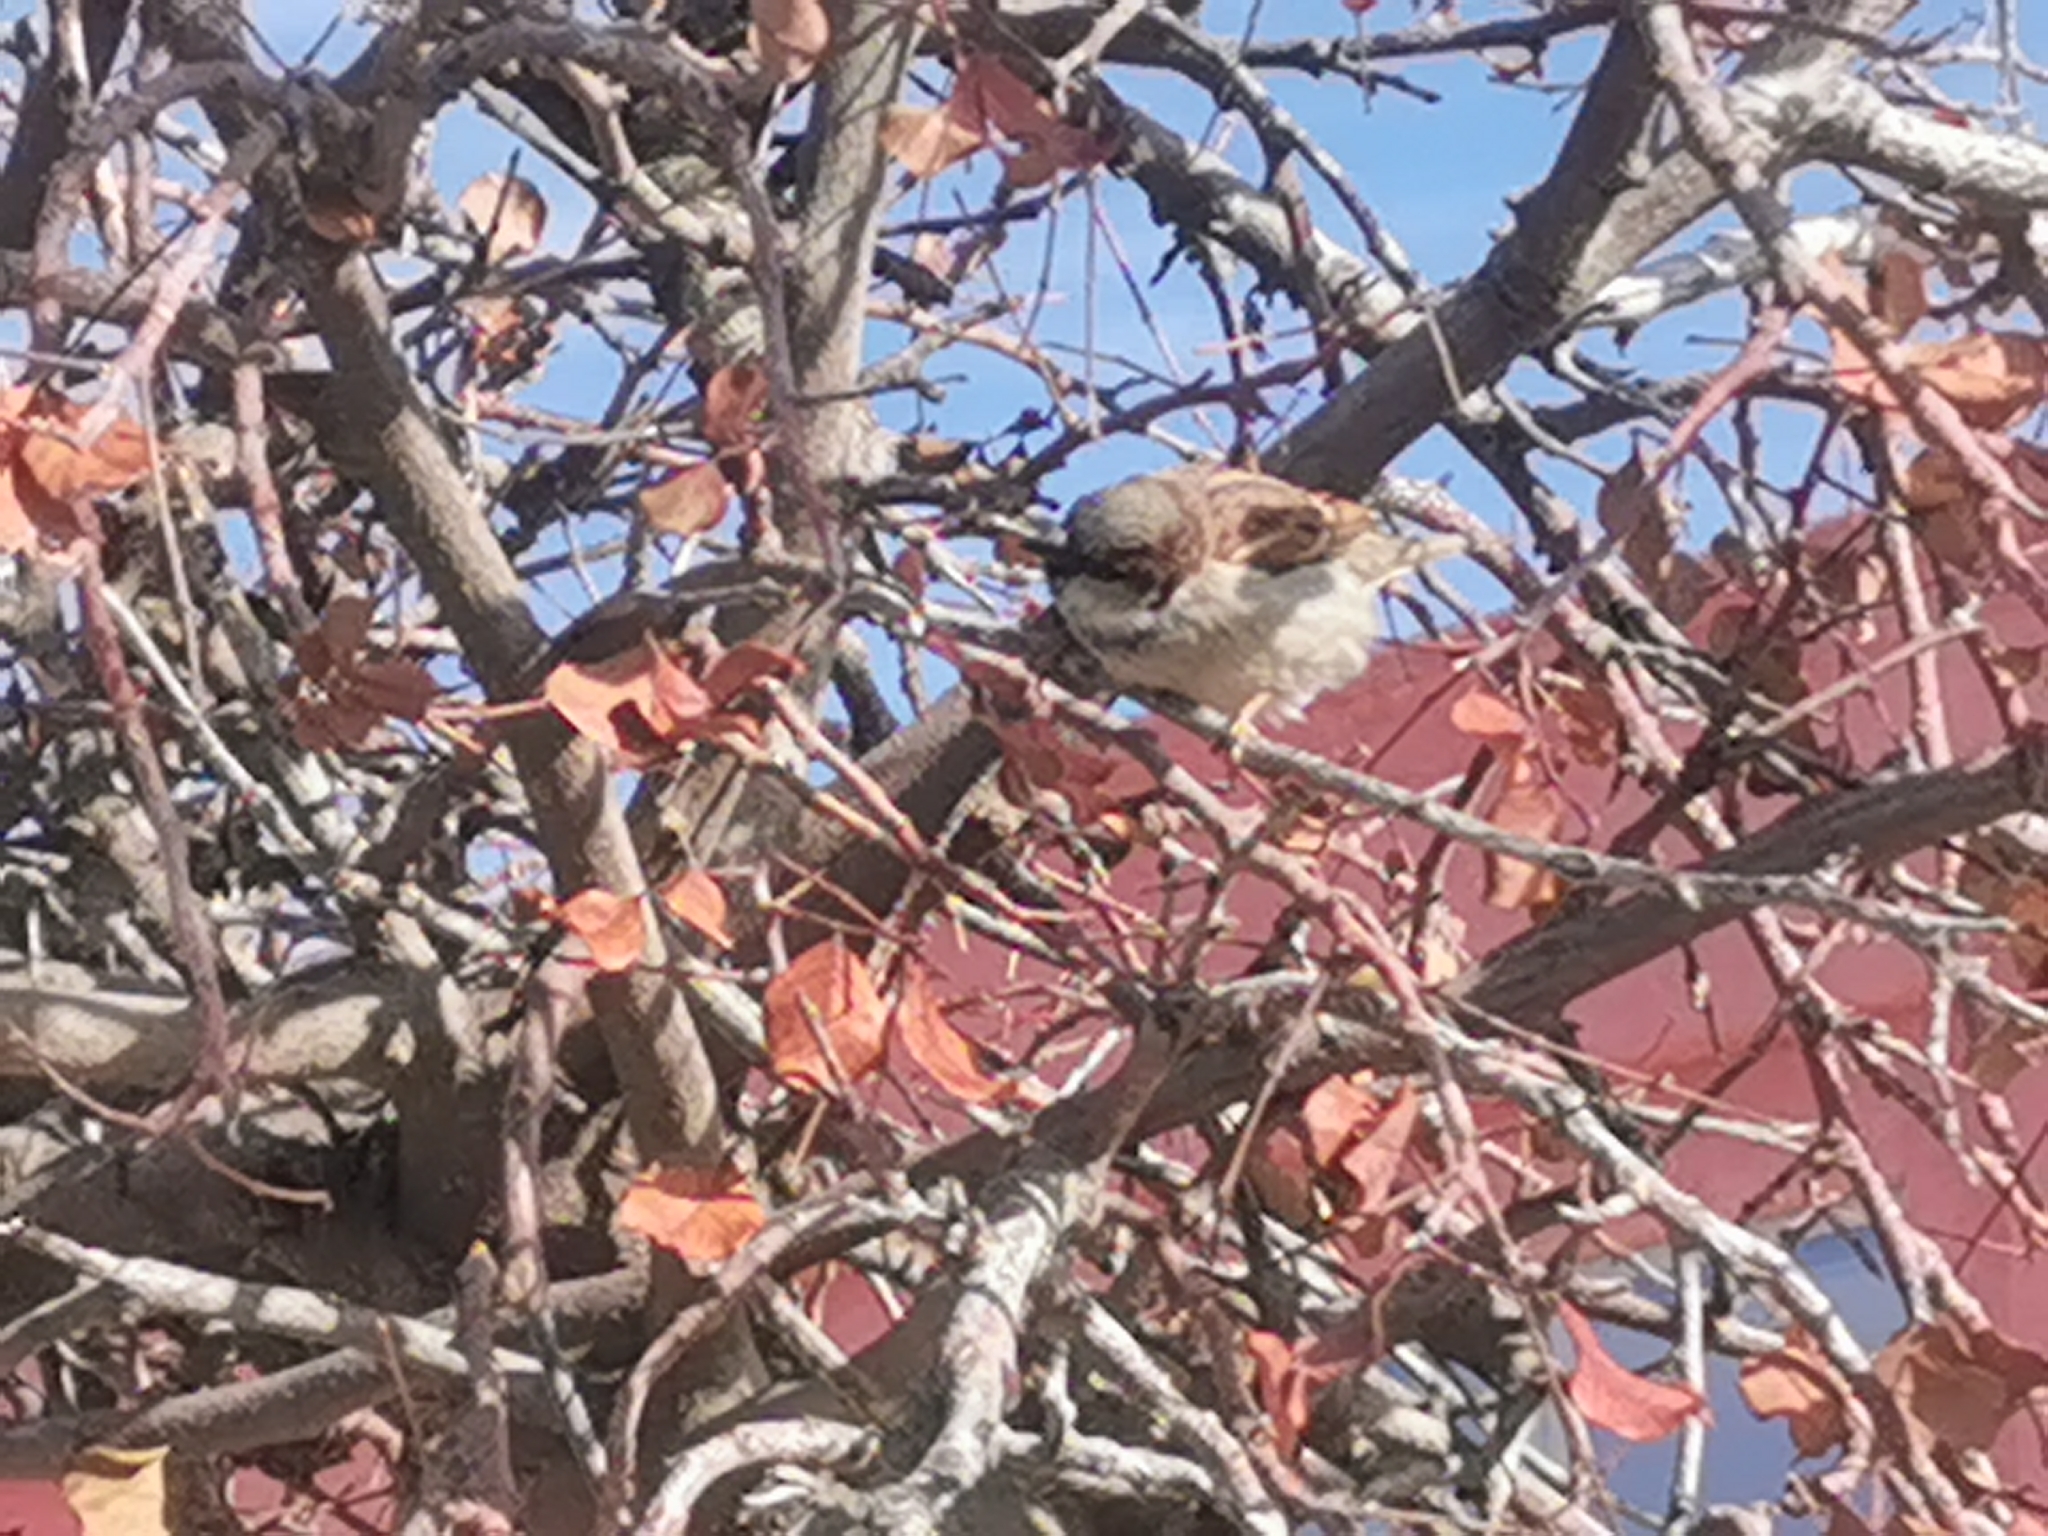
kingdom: Animalia
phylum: Chordata
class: Aves
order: Passeriformes
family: Passeridae
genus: Passer
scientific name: Passer domesticus
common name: House sparrow
